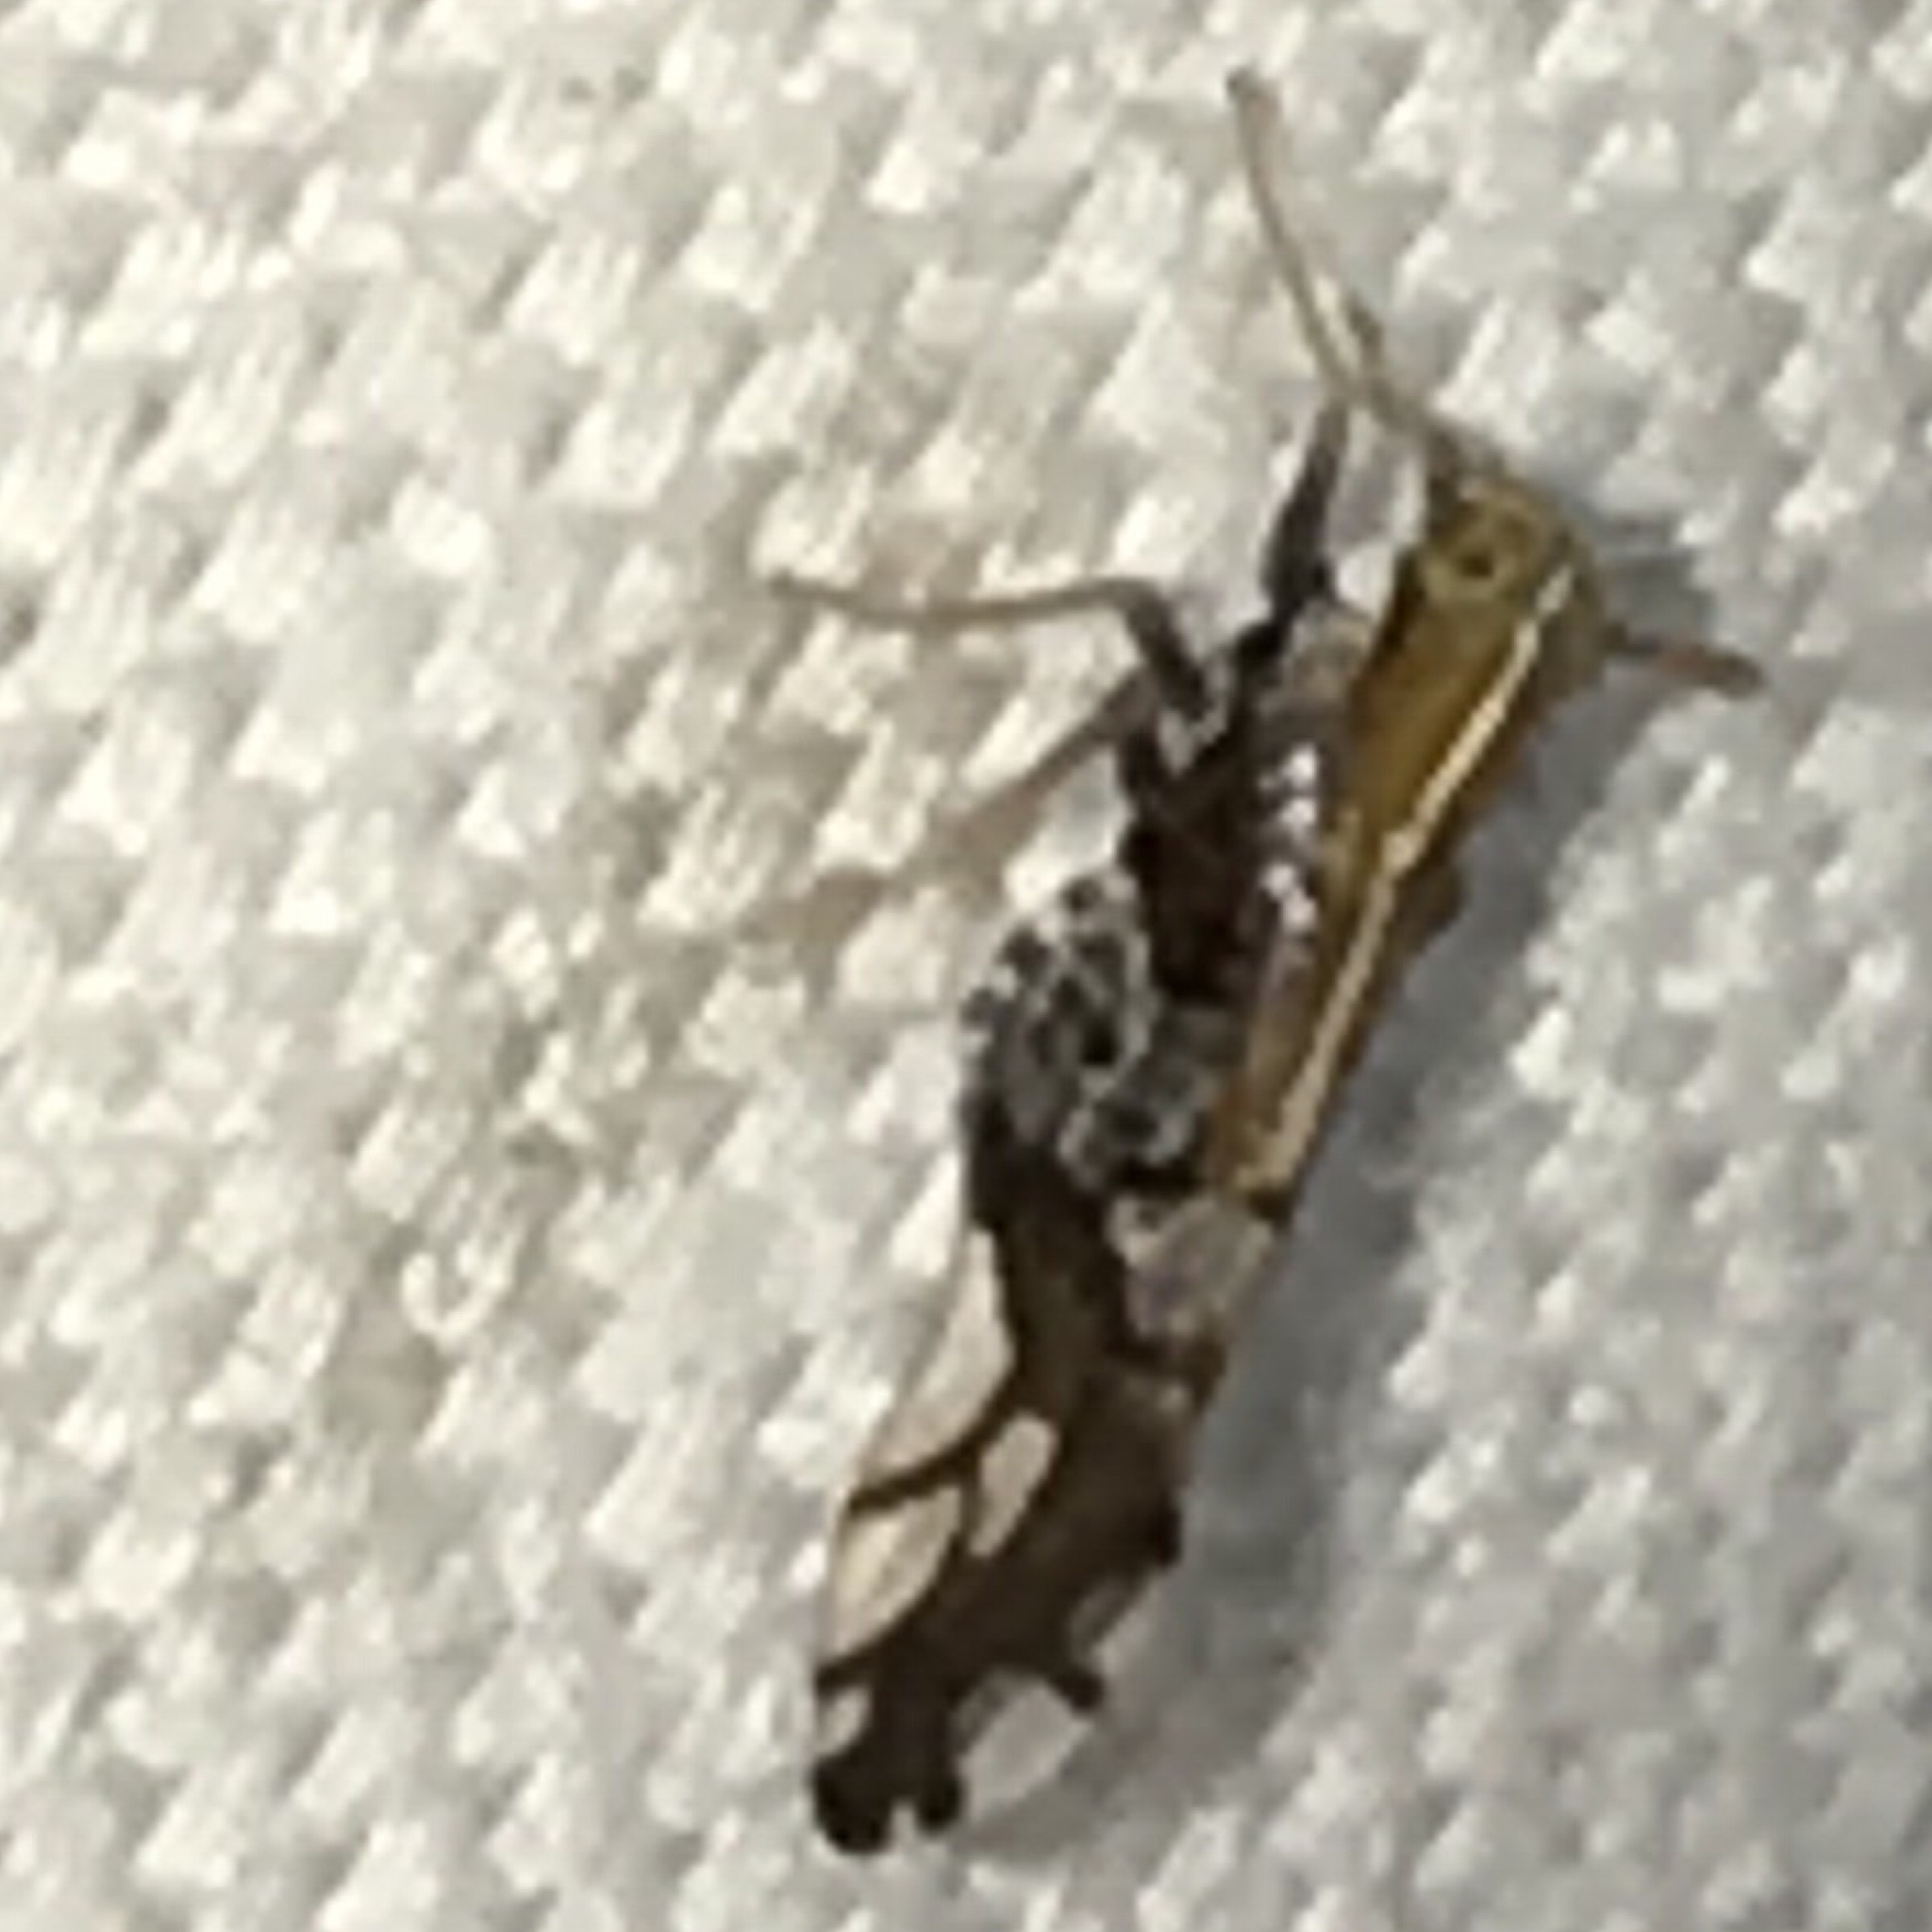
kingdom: Animalia
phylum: Arthropoda
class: Insecta
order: Hemiptera
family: Delphacidae
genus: Liburniella
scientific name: Liburniella ornata
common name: Ornate planthopper
